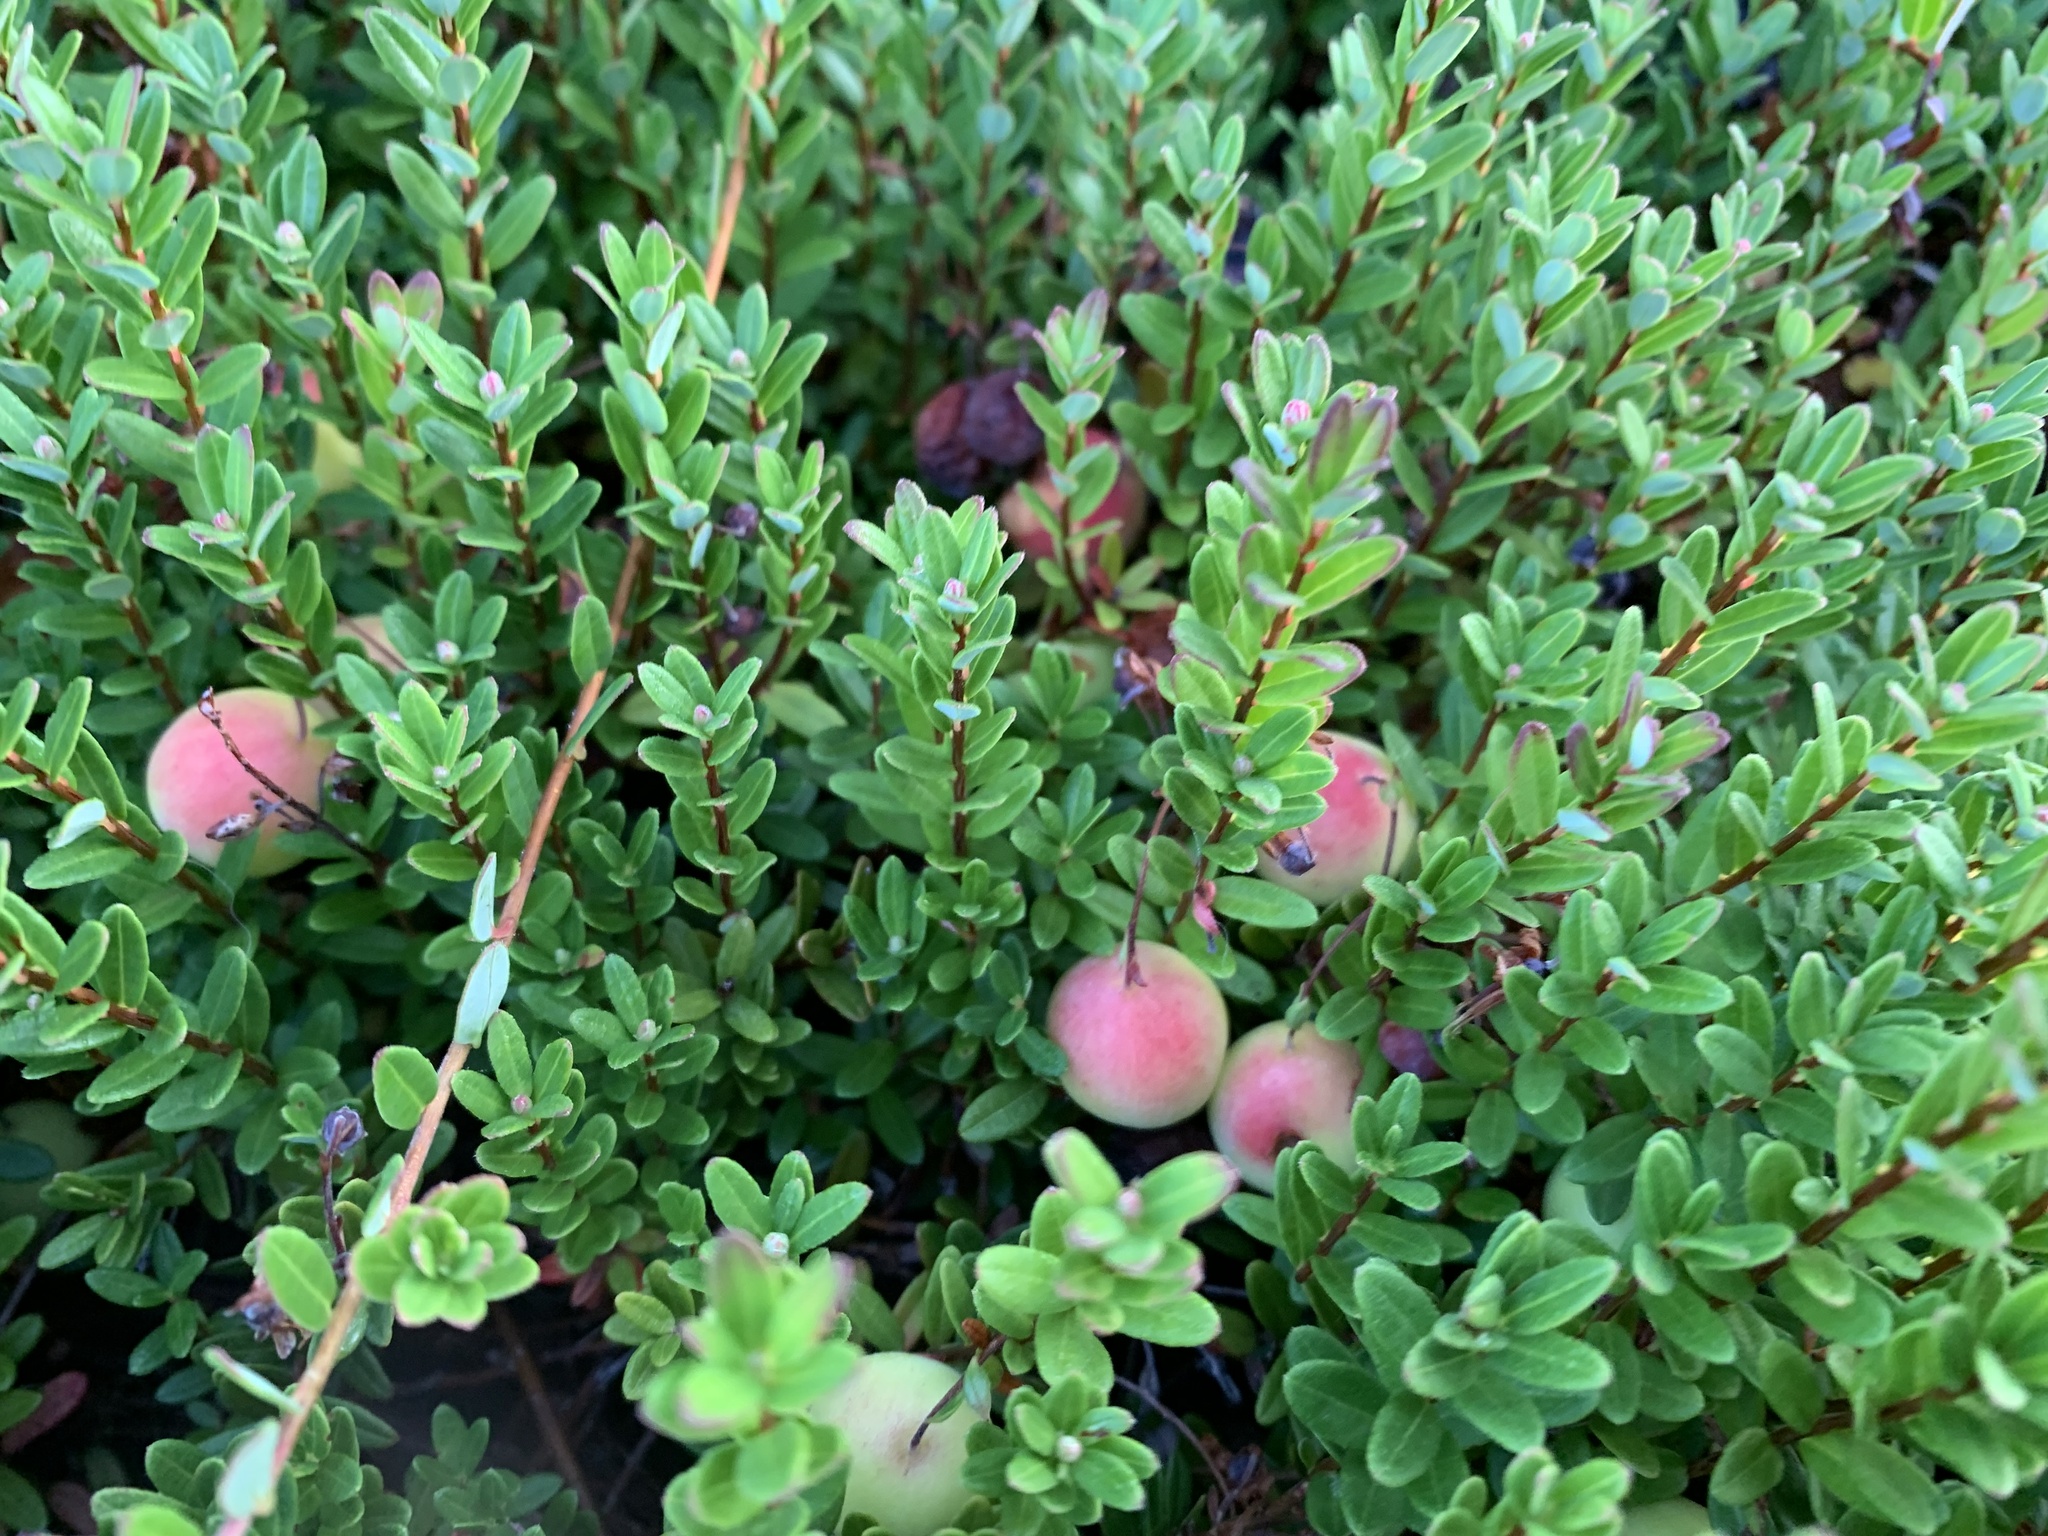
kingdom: Plantae
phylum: Tracheophyta
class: Magnoliopsida
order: Ericales
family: Ericaceae
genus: Vaccinium
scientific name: Vaccinium macrocarpon
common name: American cranberry
